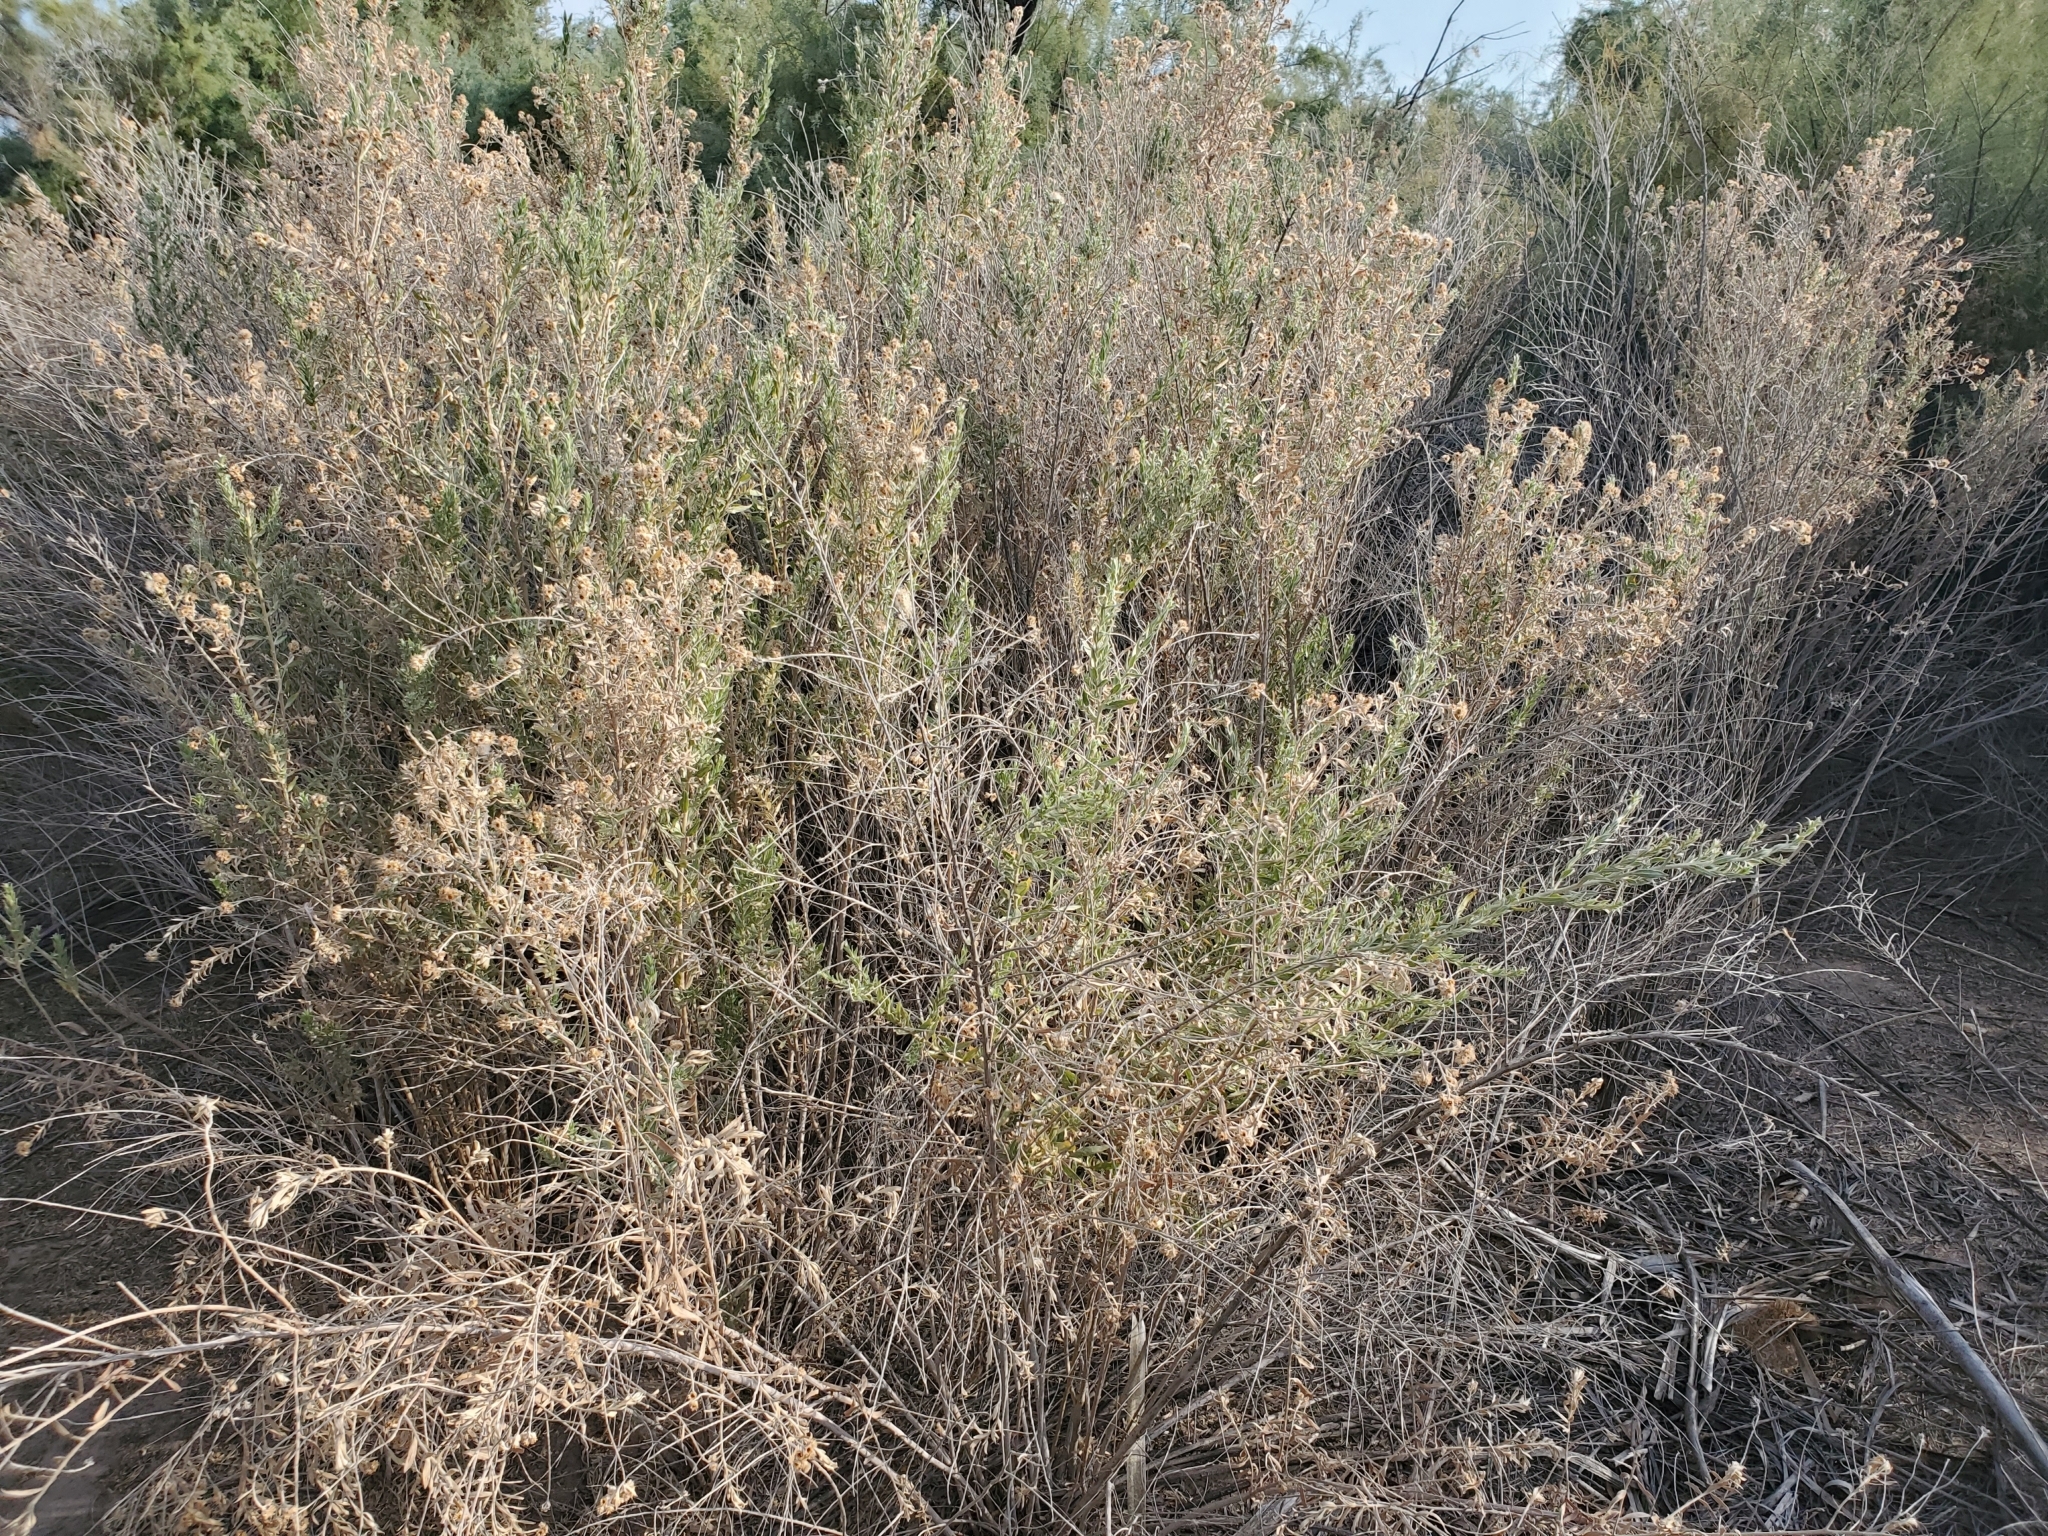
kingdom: Plantae
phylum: Tracheophyta
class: Magnoliopsida
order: Asterales
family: Asteraceae
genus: Pluchea
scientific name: Pluchea sericea
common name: Arrow-weed
